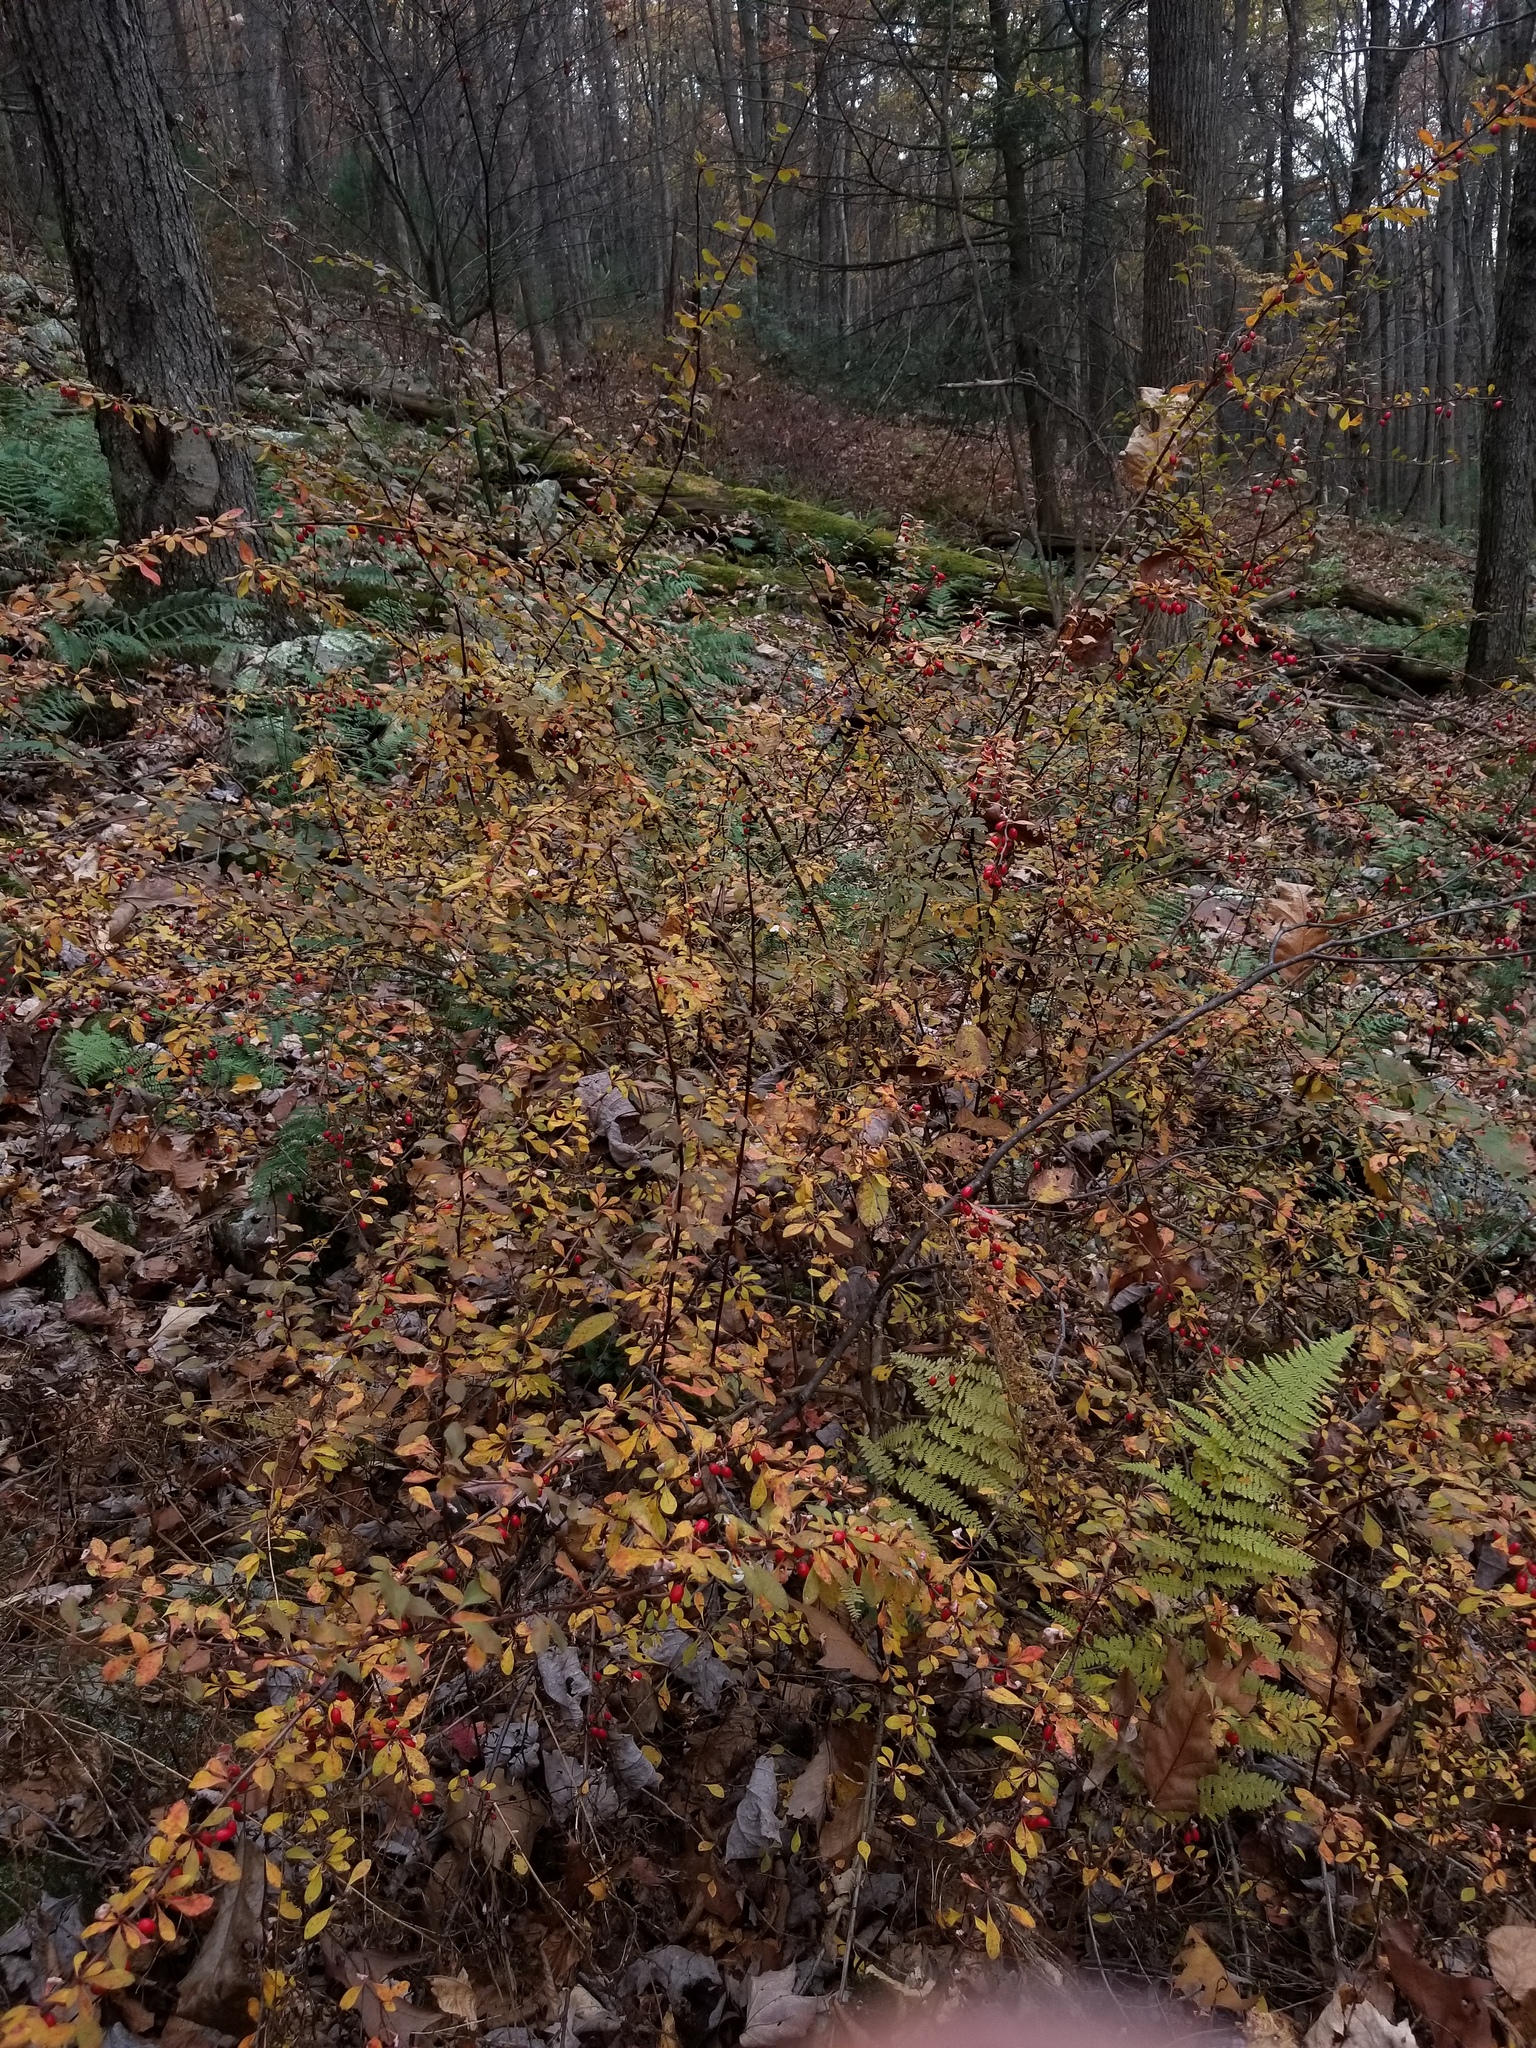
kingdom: Plantae
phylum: Tracheophyta
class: Magnoliopsida
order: Ranunculales
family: Berberidaceae
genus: Berberis
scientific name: Berberis thunbergii
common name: Japanese barberry
